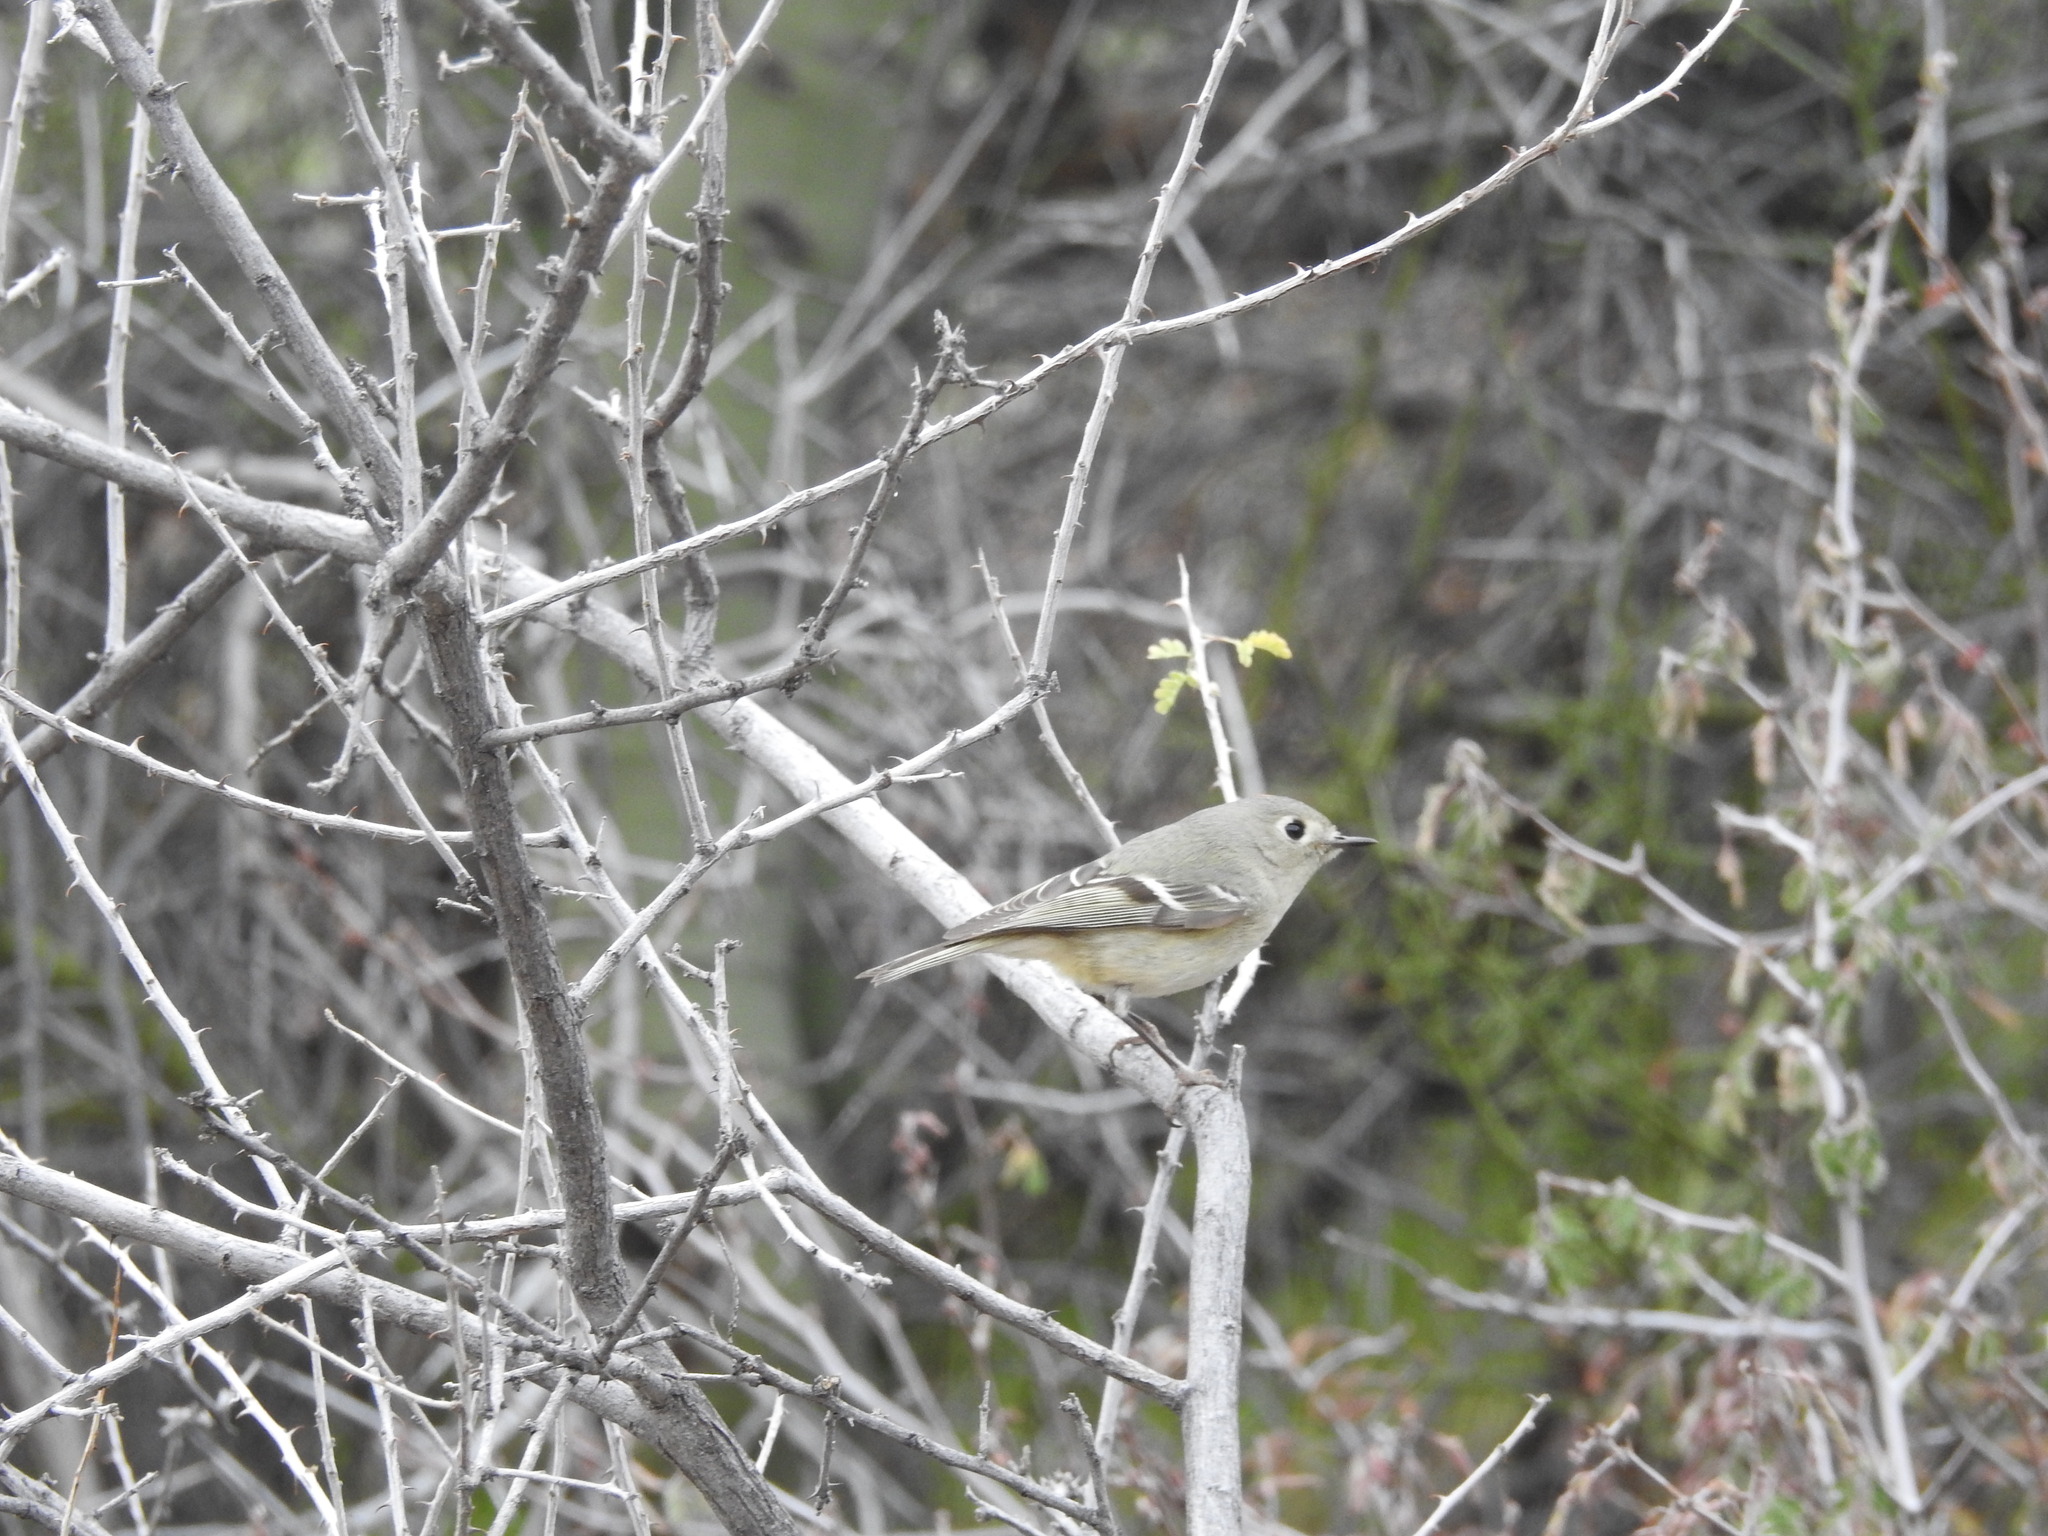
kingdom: Animalia
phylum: Chordata
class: Aves
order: Passeriformes
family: Regulidae
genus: Regulus
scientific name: Regulus calendula
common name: Ruby-crowned kinglet
